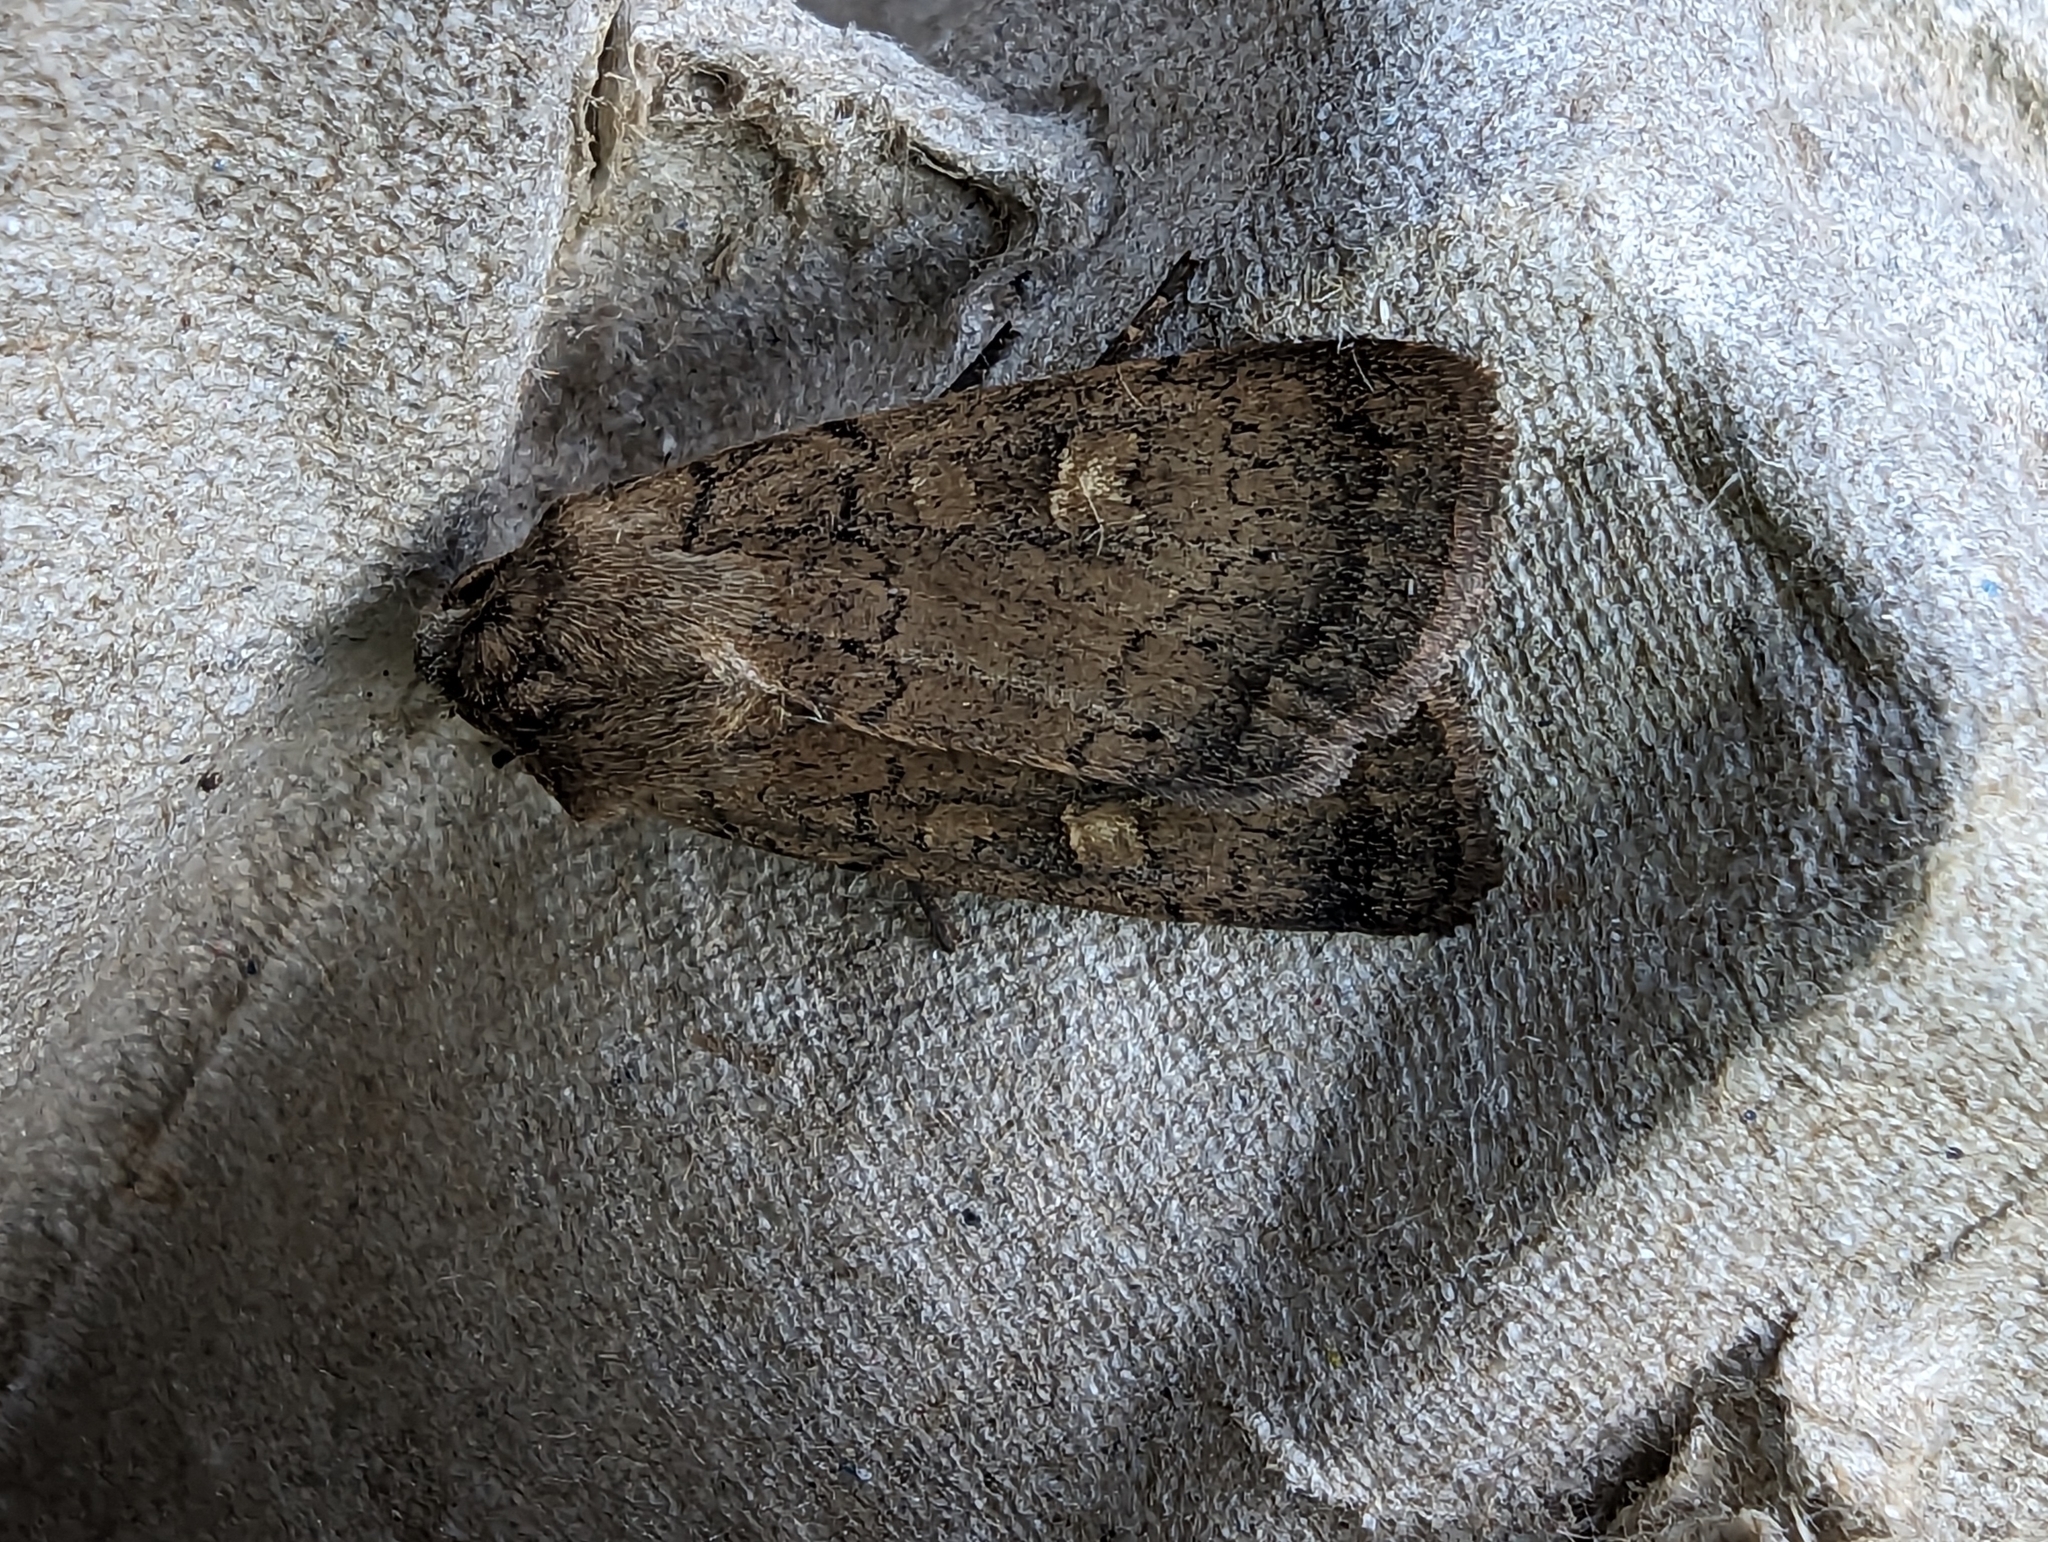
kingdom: Animalia
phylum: Arthropoda
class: Insecta
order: Lepidoptera
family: Noctuidae
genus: Xestia
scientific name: Xestia xanthographa
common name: Square-spot rustic
